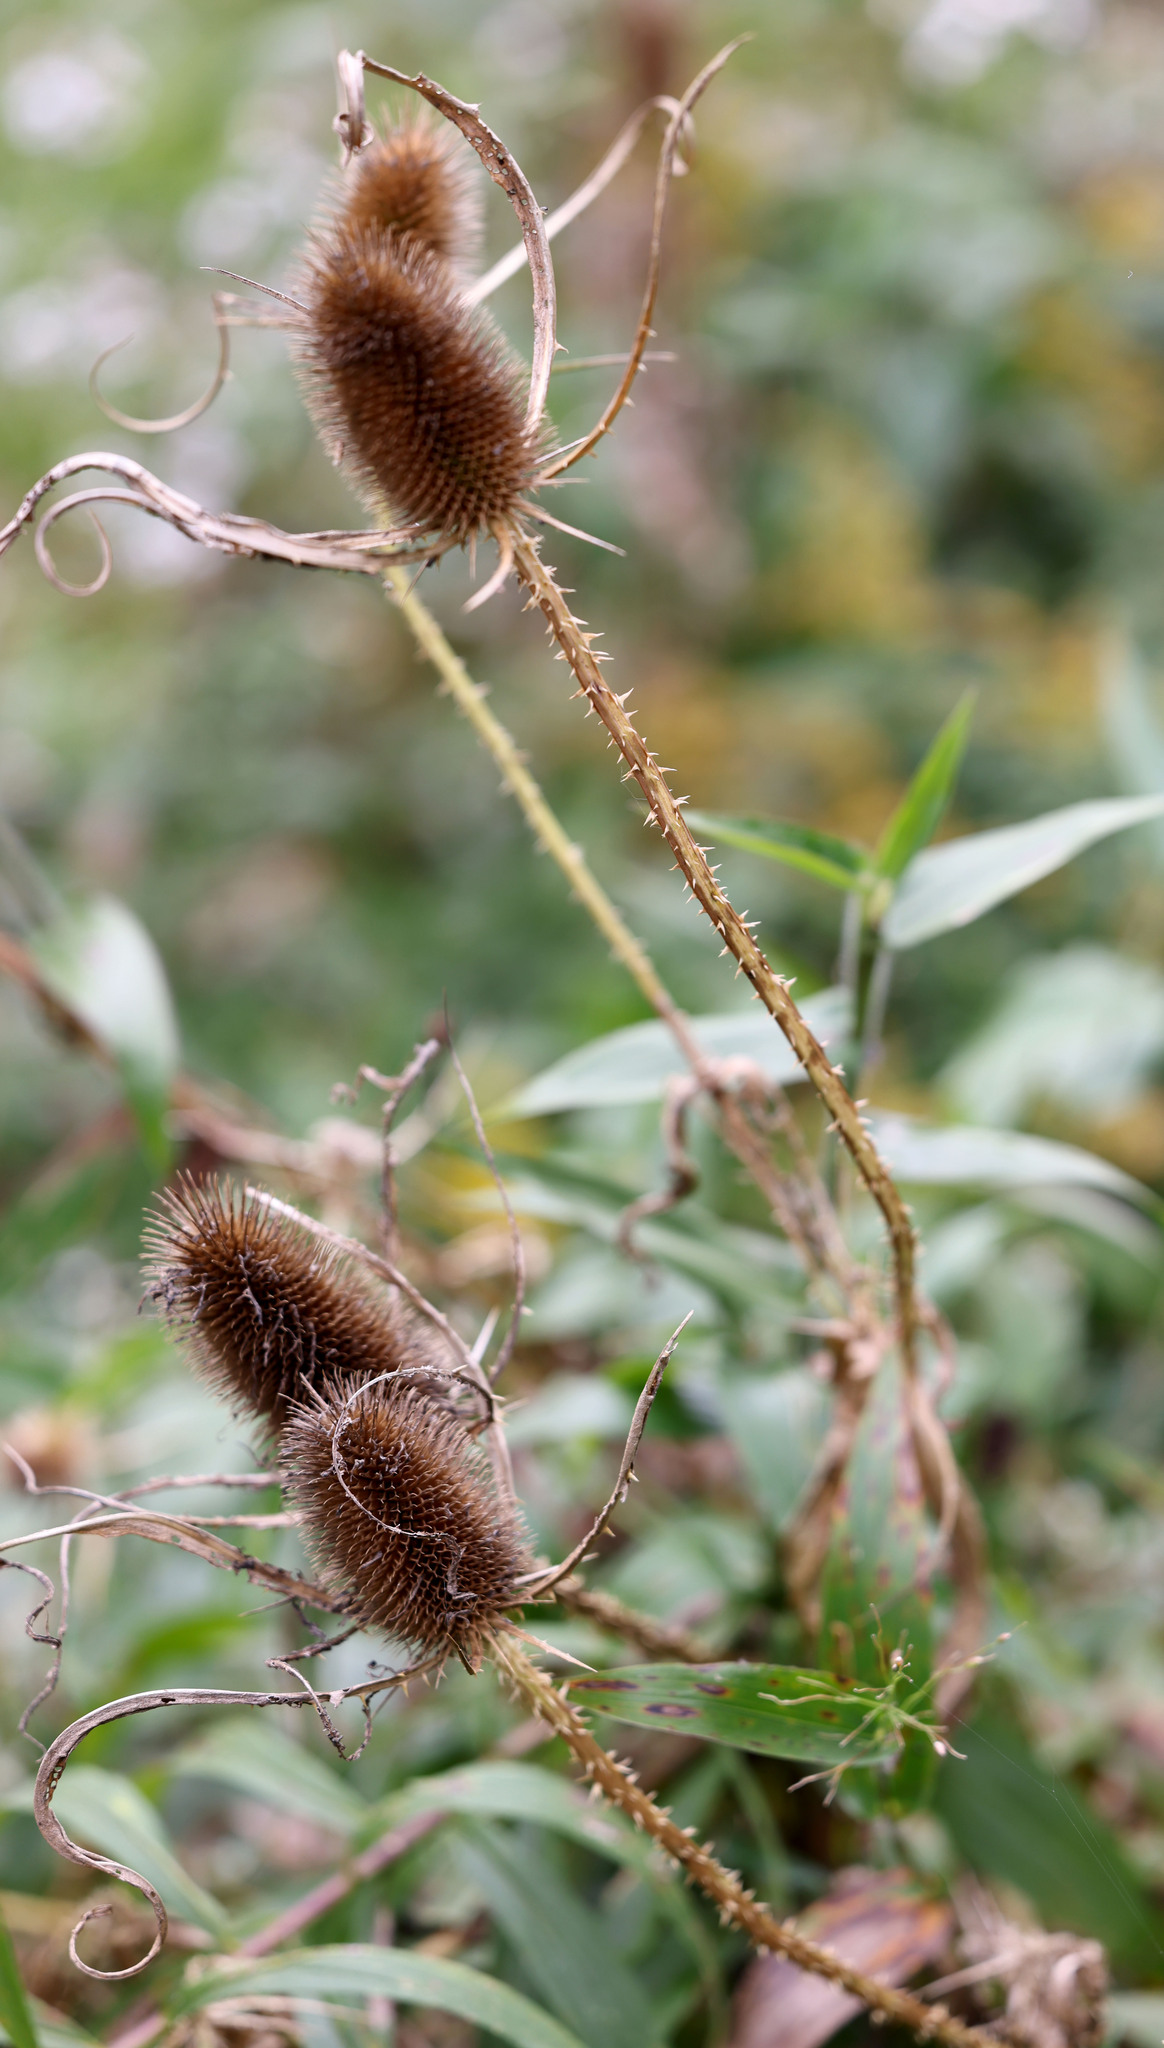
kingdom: Plantae
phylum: Tracheophyta
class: Magnoliopsida
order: Dipsacales
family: Caprifoliaceae
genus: Dipsacus
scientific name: Dipsacus fullonum
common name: Teasel
